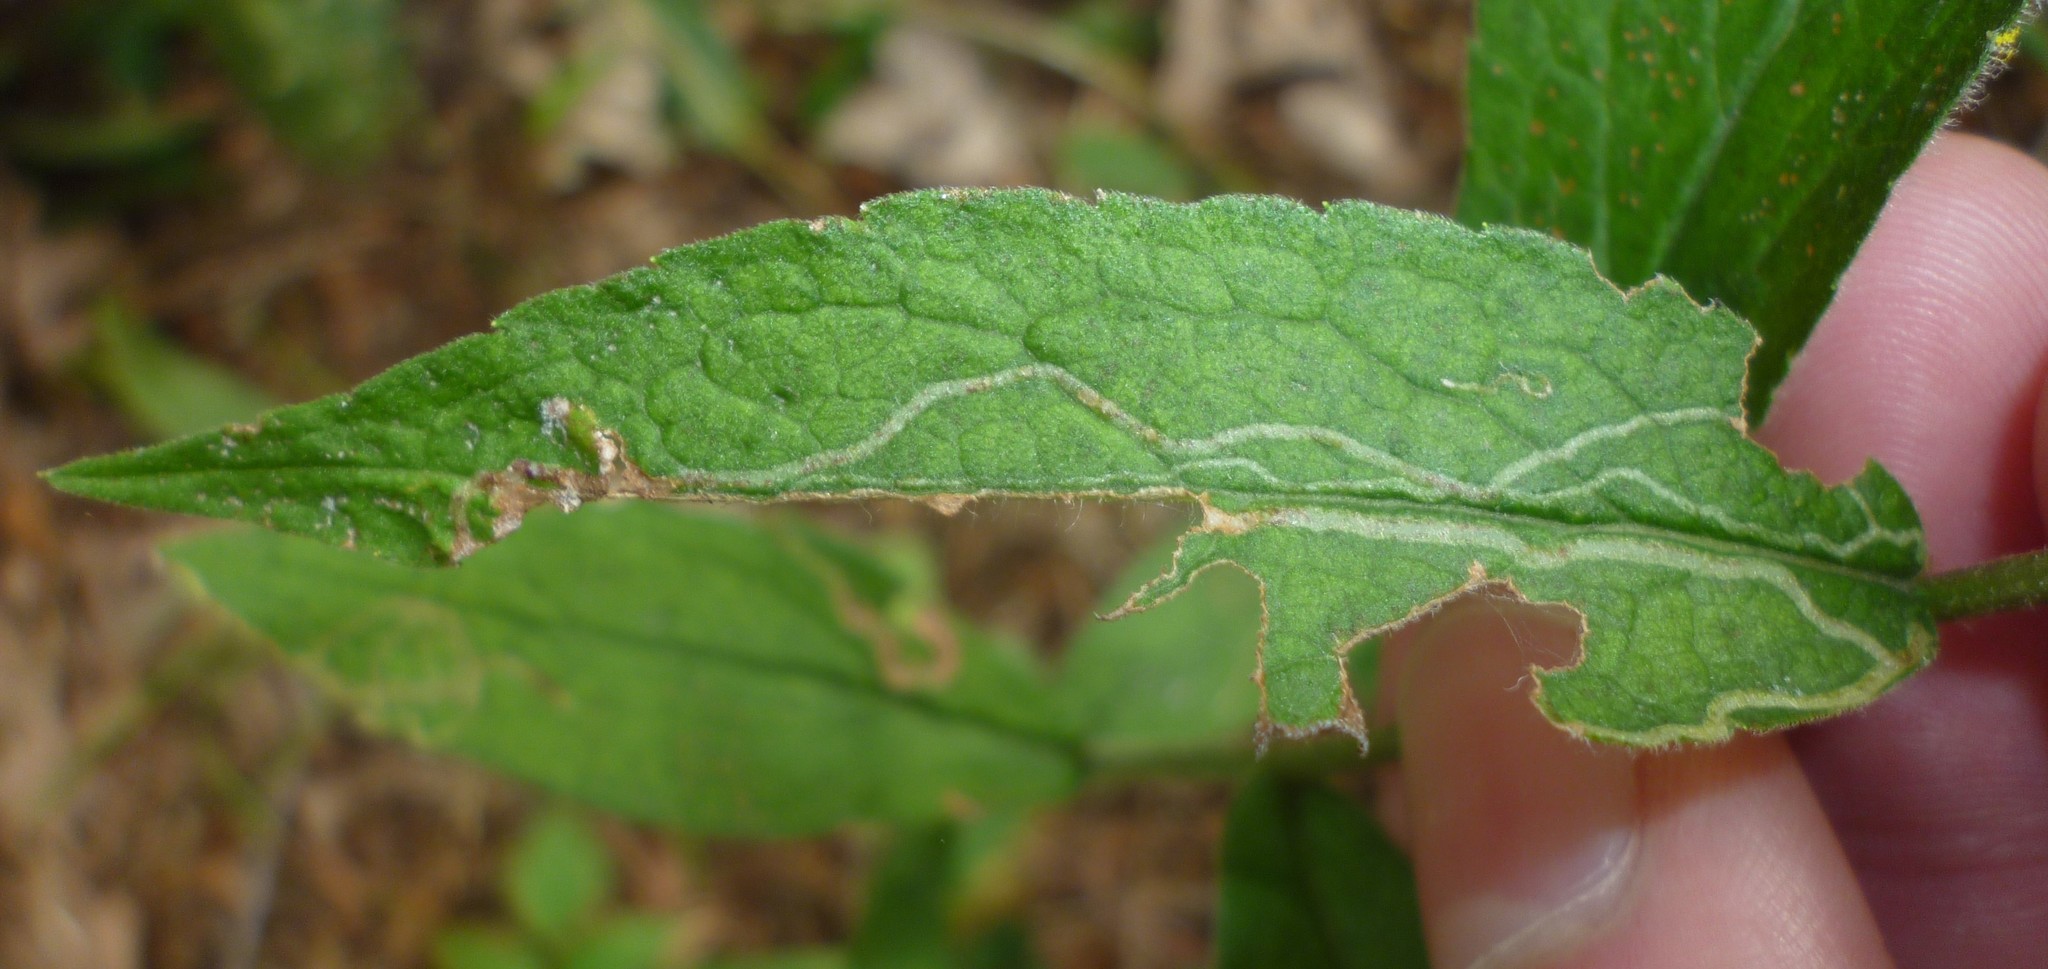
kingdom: Animalia
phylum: Arthropoda
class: Insecta
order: Diptera
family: Agromyzidae
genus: Ophiomyia
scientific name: Ophiomyia maura
